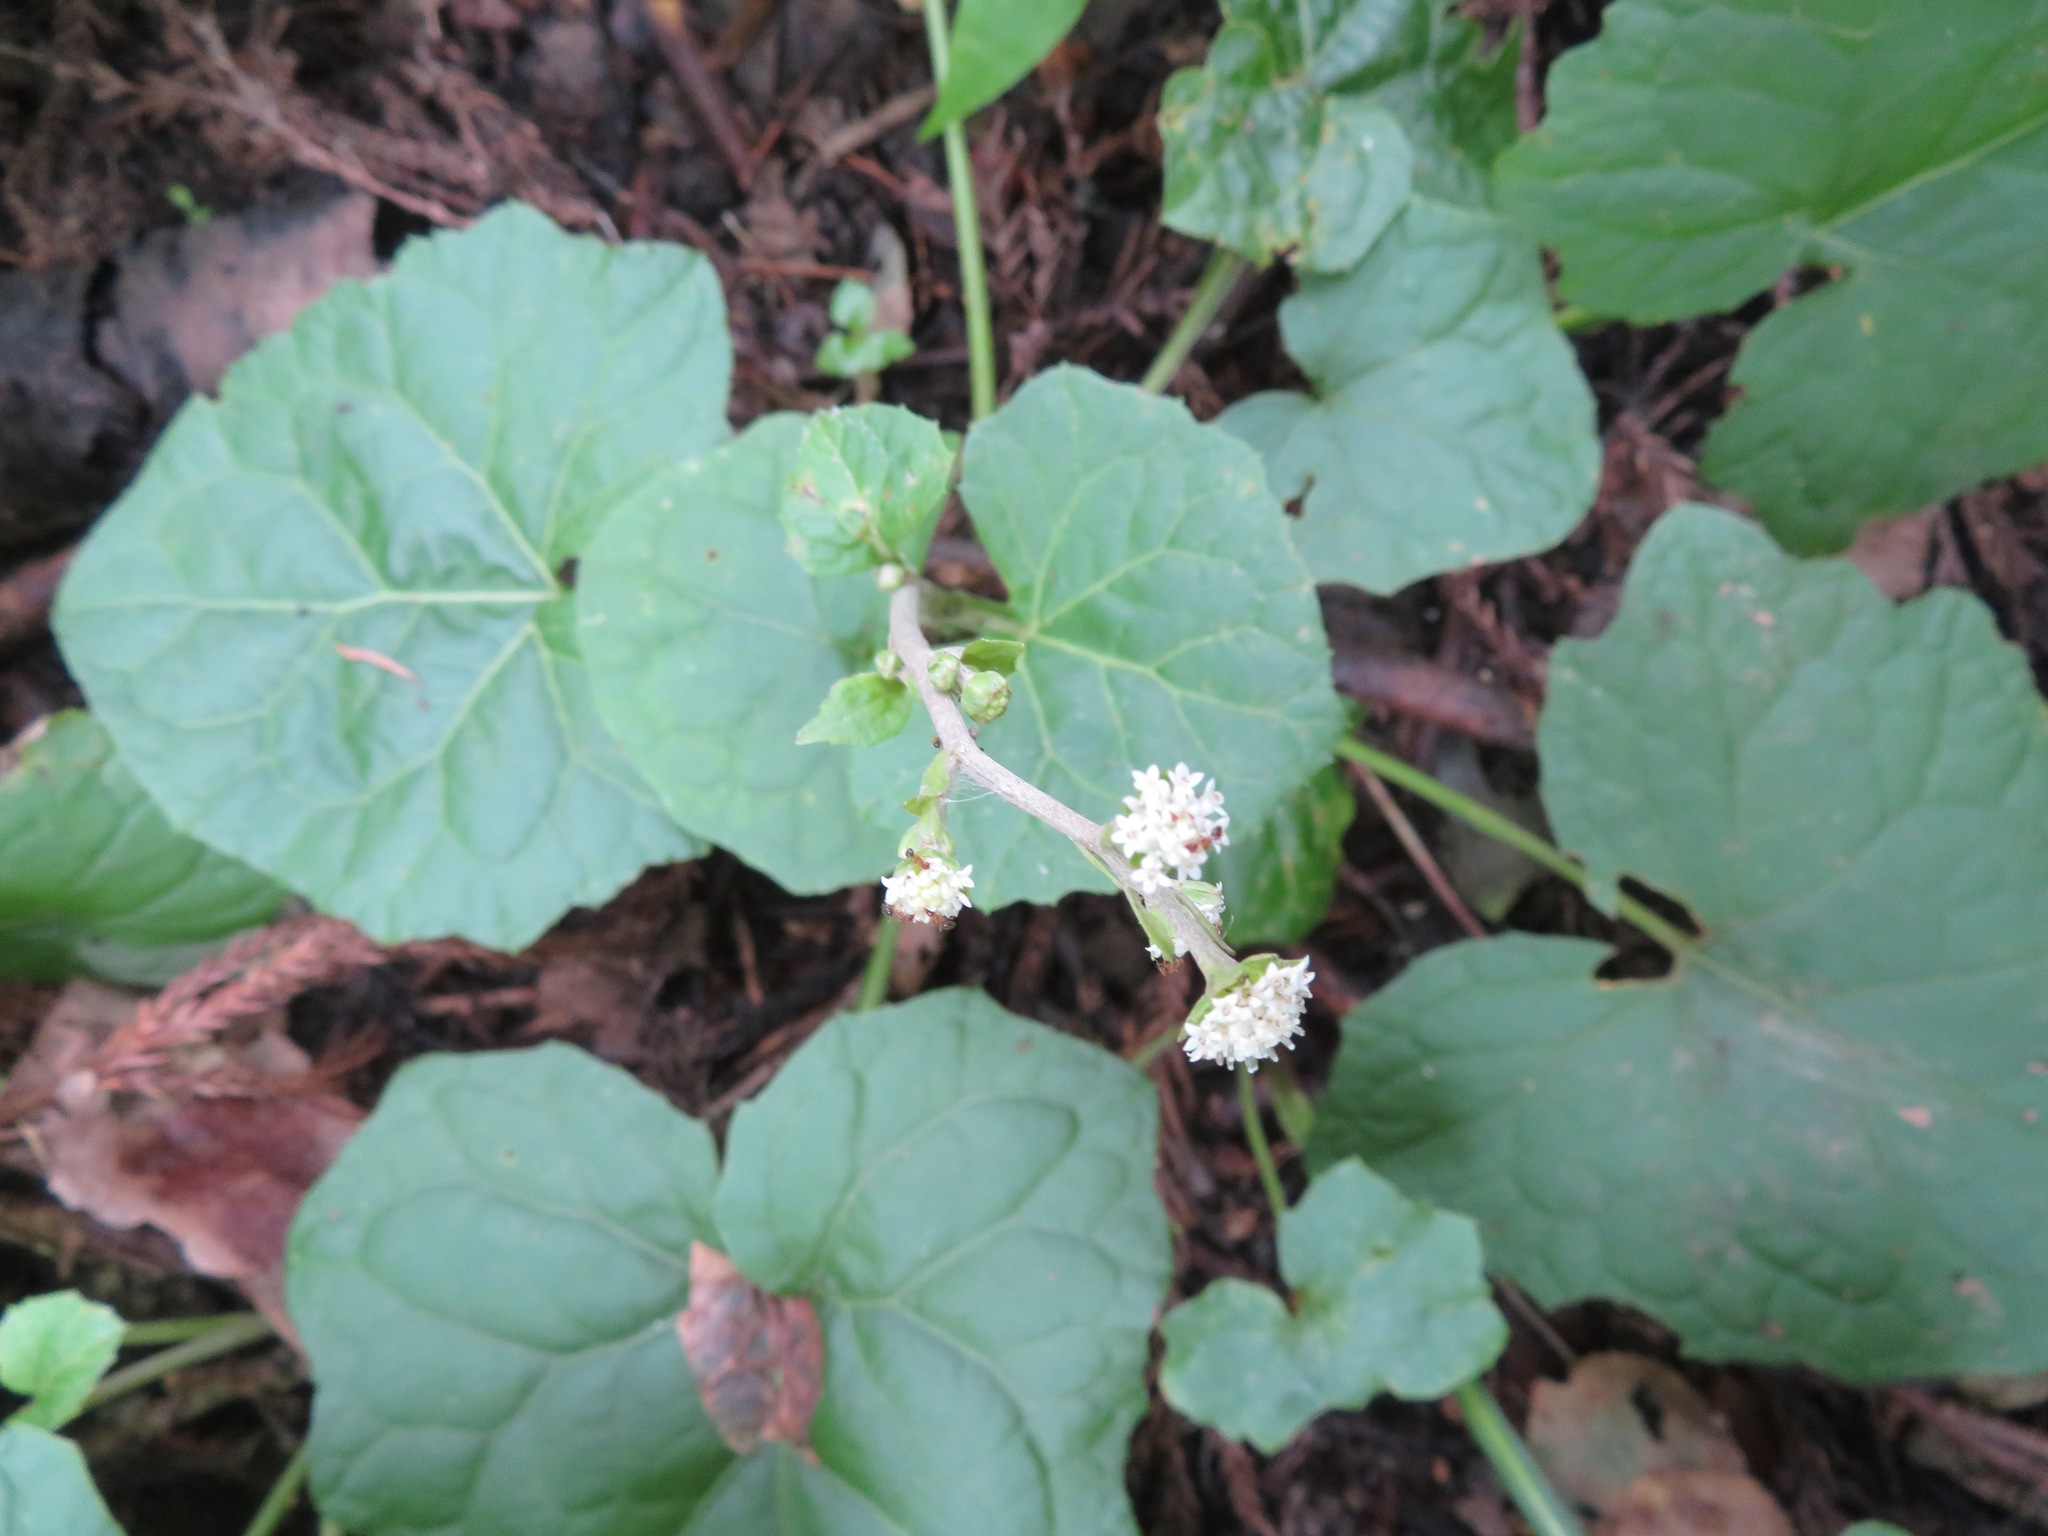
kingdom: Plantae
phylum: Tracheophyta
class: Magnoliopsida
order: Asterales
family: Asteraceae
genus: Adenocaulon
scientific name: Adenocaulon himalaicum
